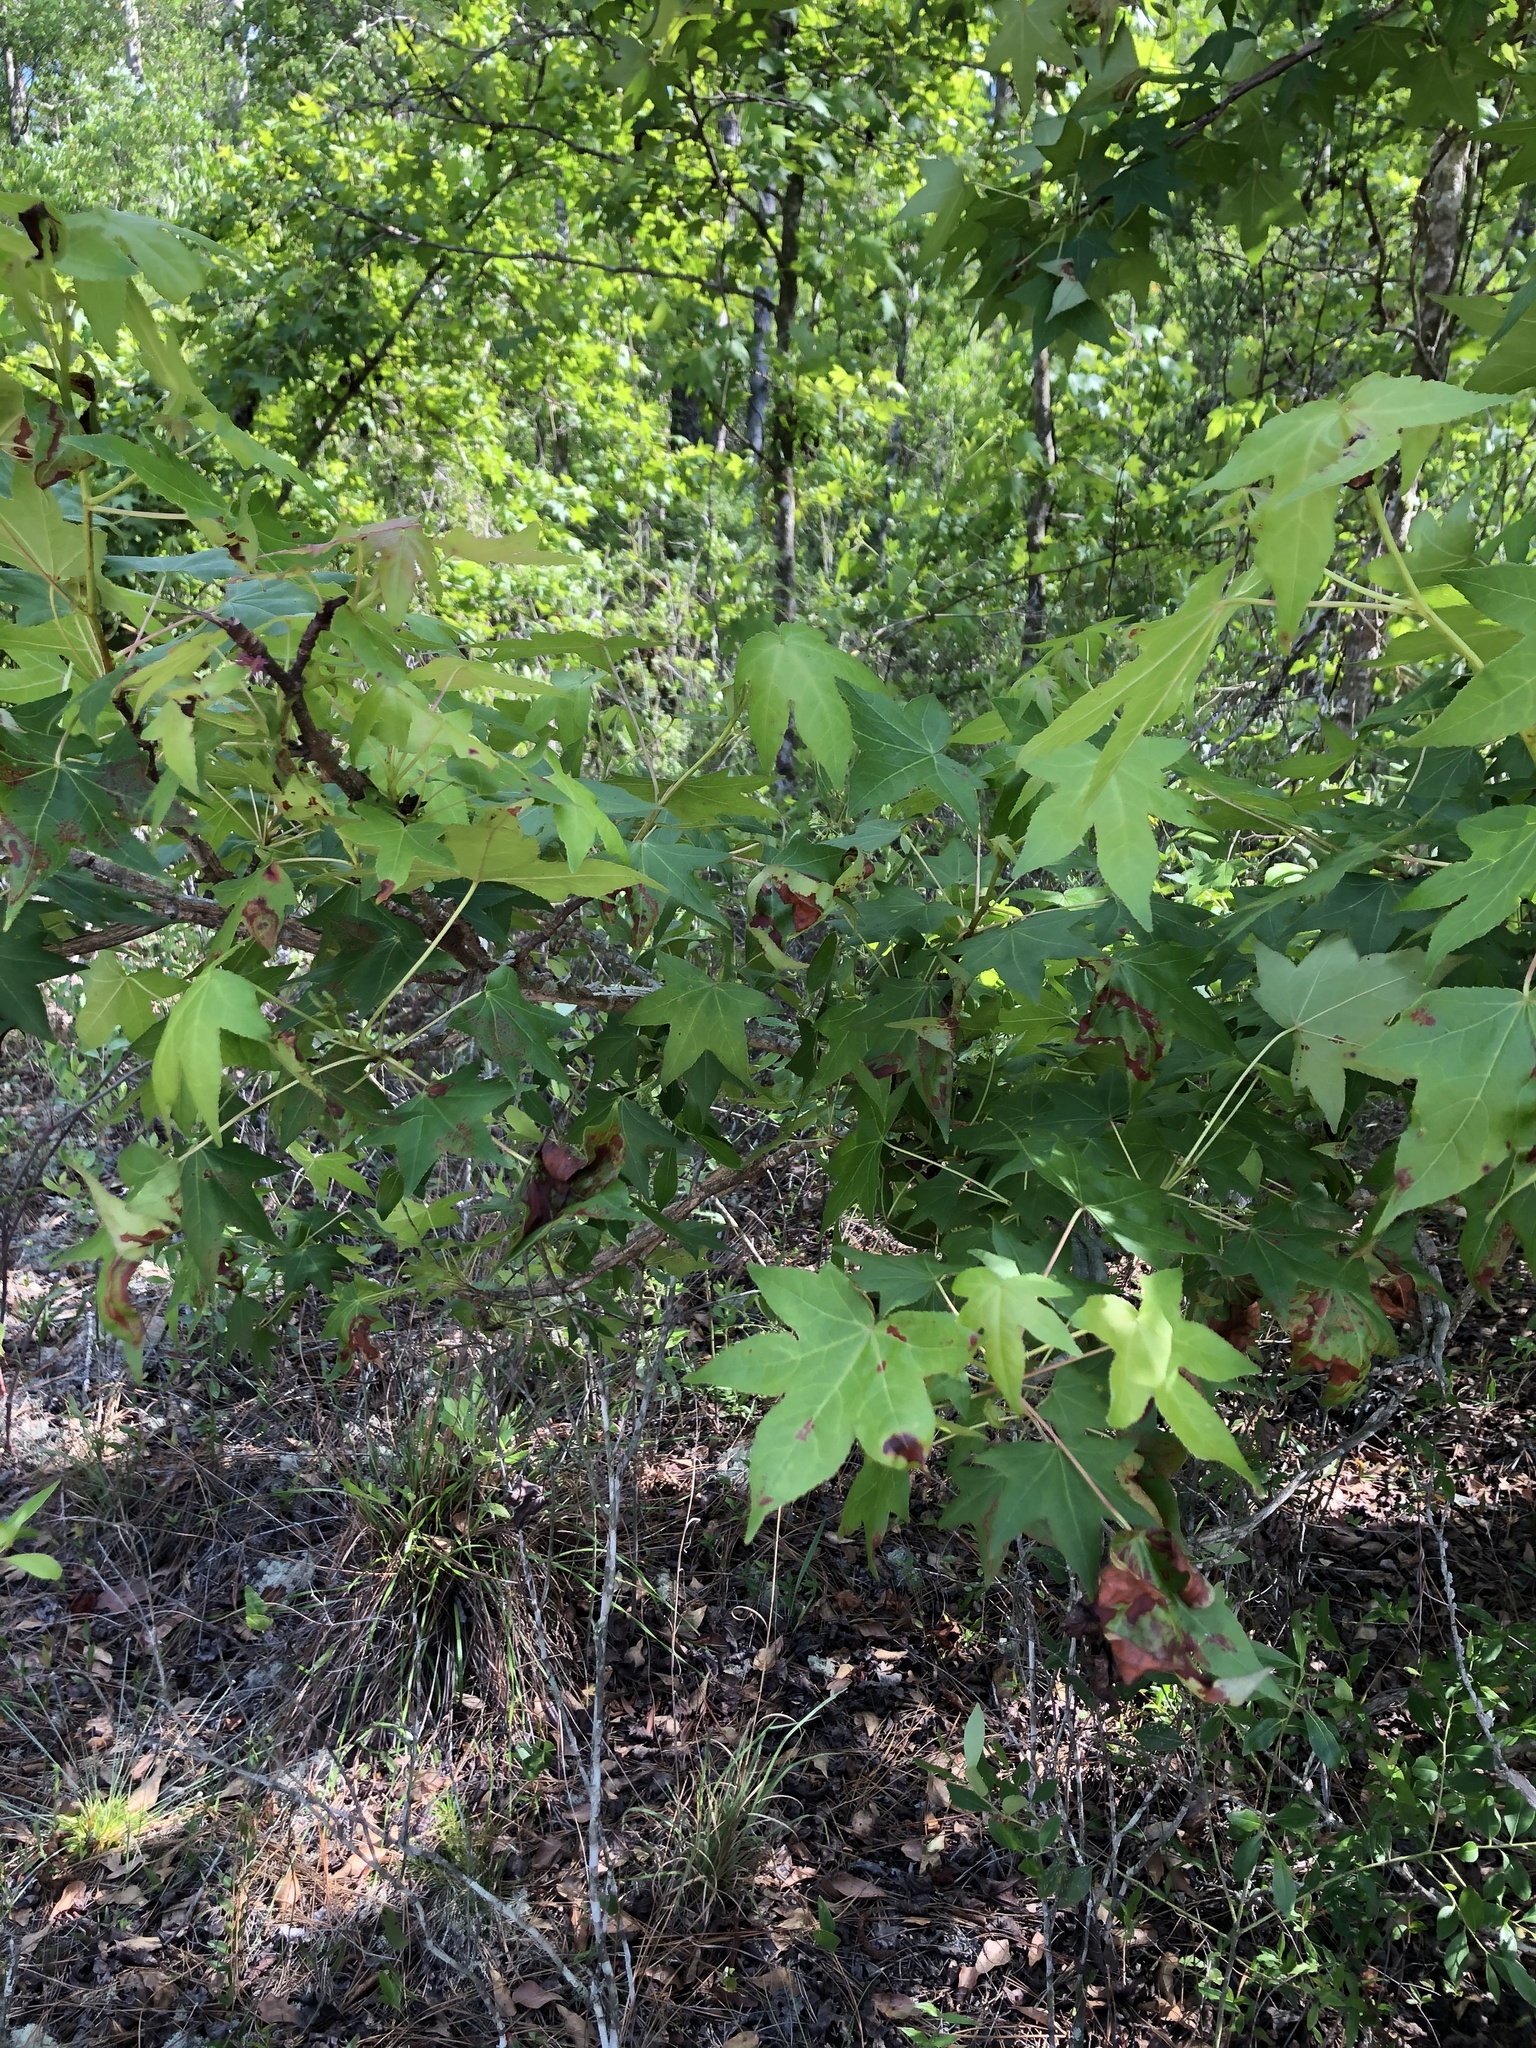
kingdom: Plantae
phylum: Tracheophyta
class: Magnoliopsida
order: Saxifragales
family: Altingiaceae
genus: Liquidambar
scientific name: Liquidambar styraciflua
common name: Sweet gum
